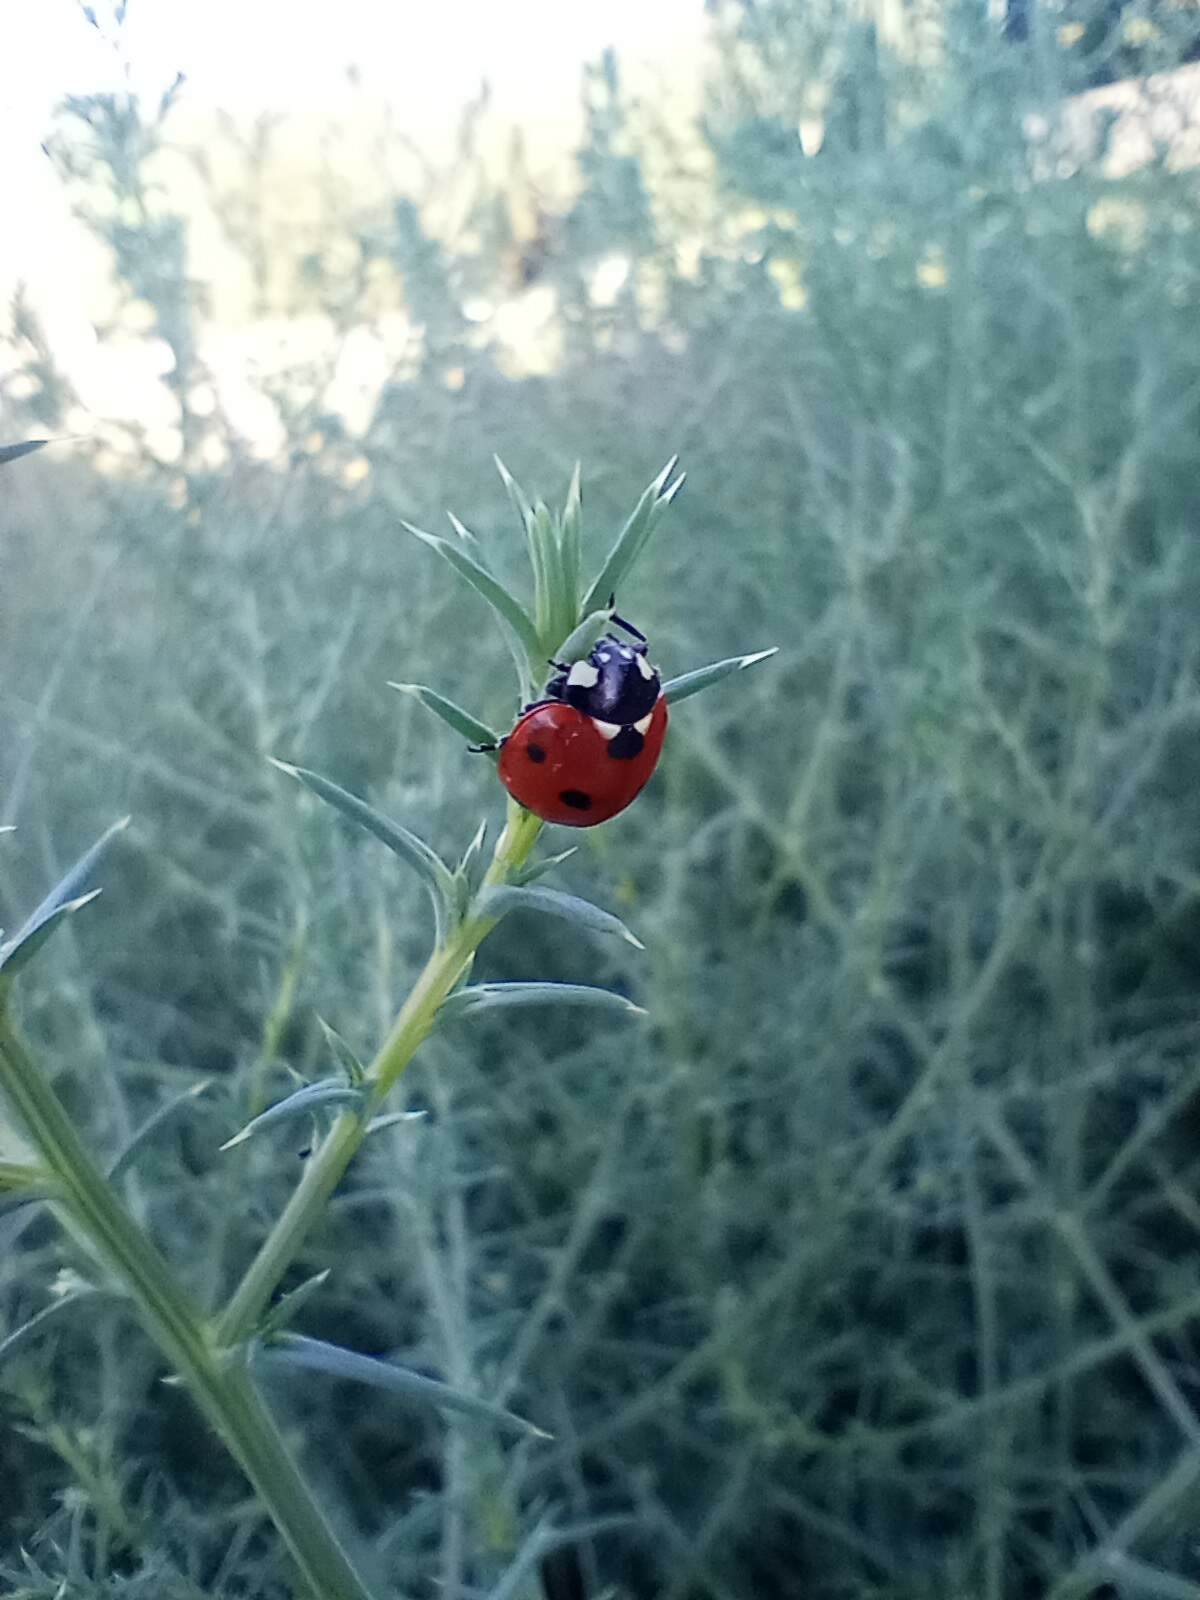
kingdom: Animalia
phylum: Arthropoda
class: Insecta
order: Coleoptera
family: Coccinellidae
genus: Coccinella
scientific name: Coccinella septempunctata
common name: Sevenspotted lady beetle
